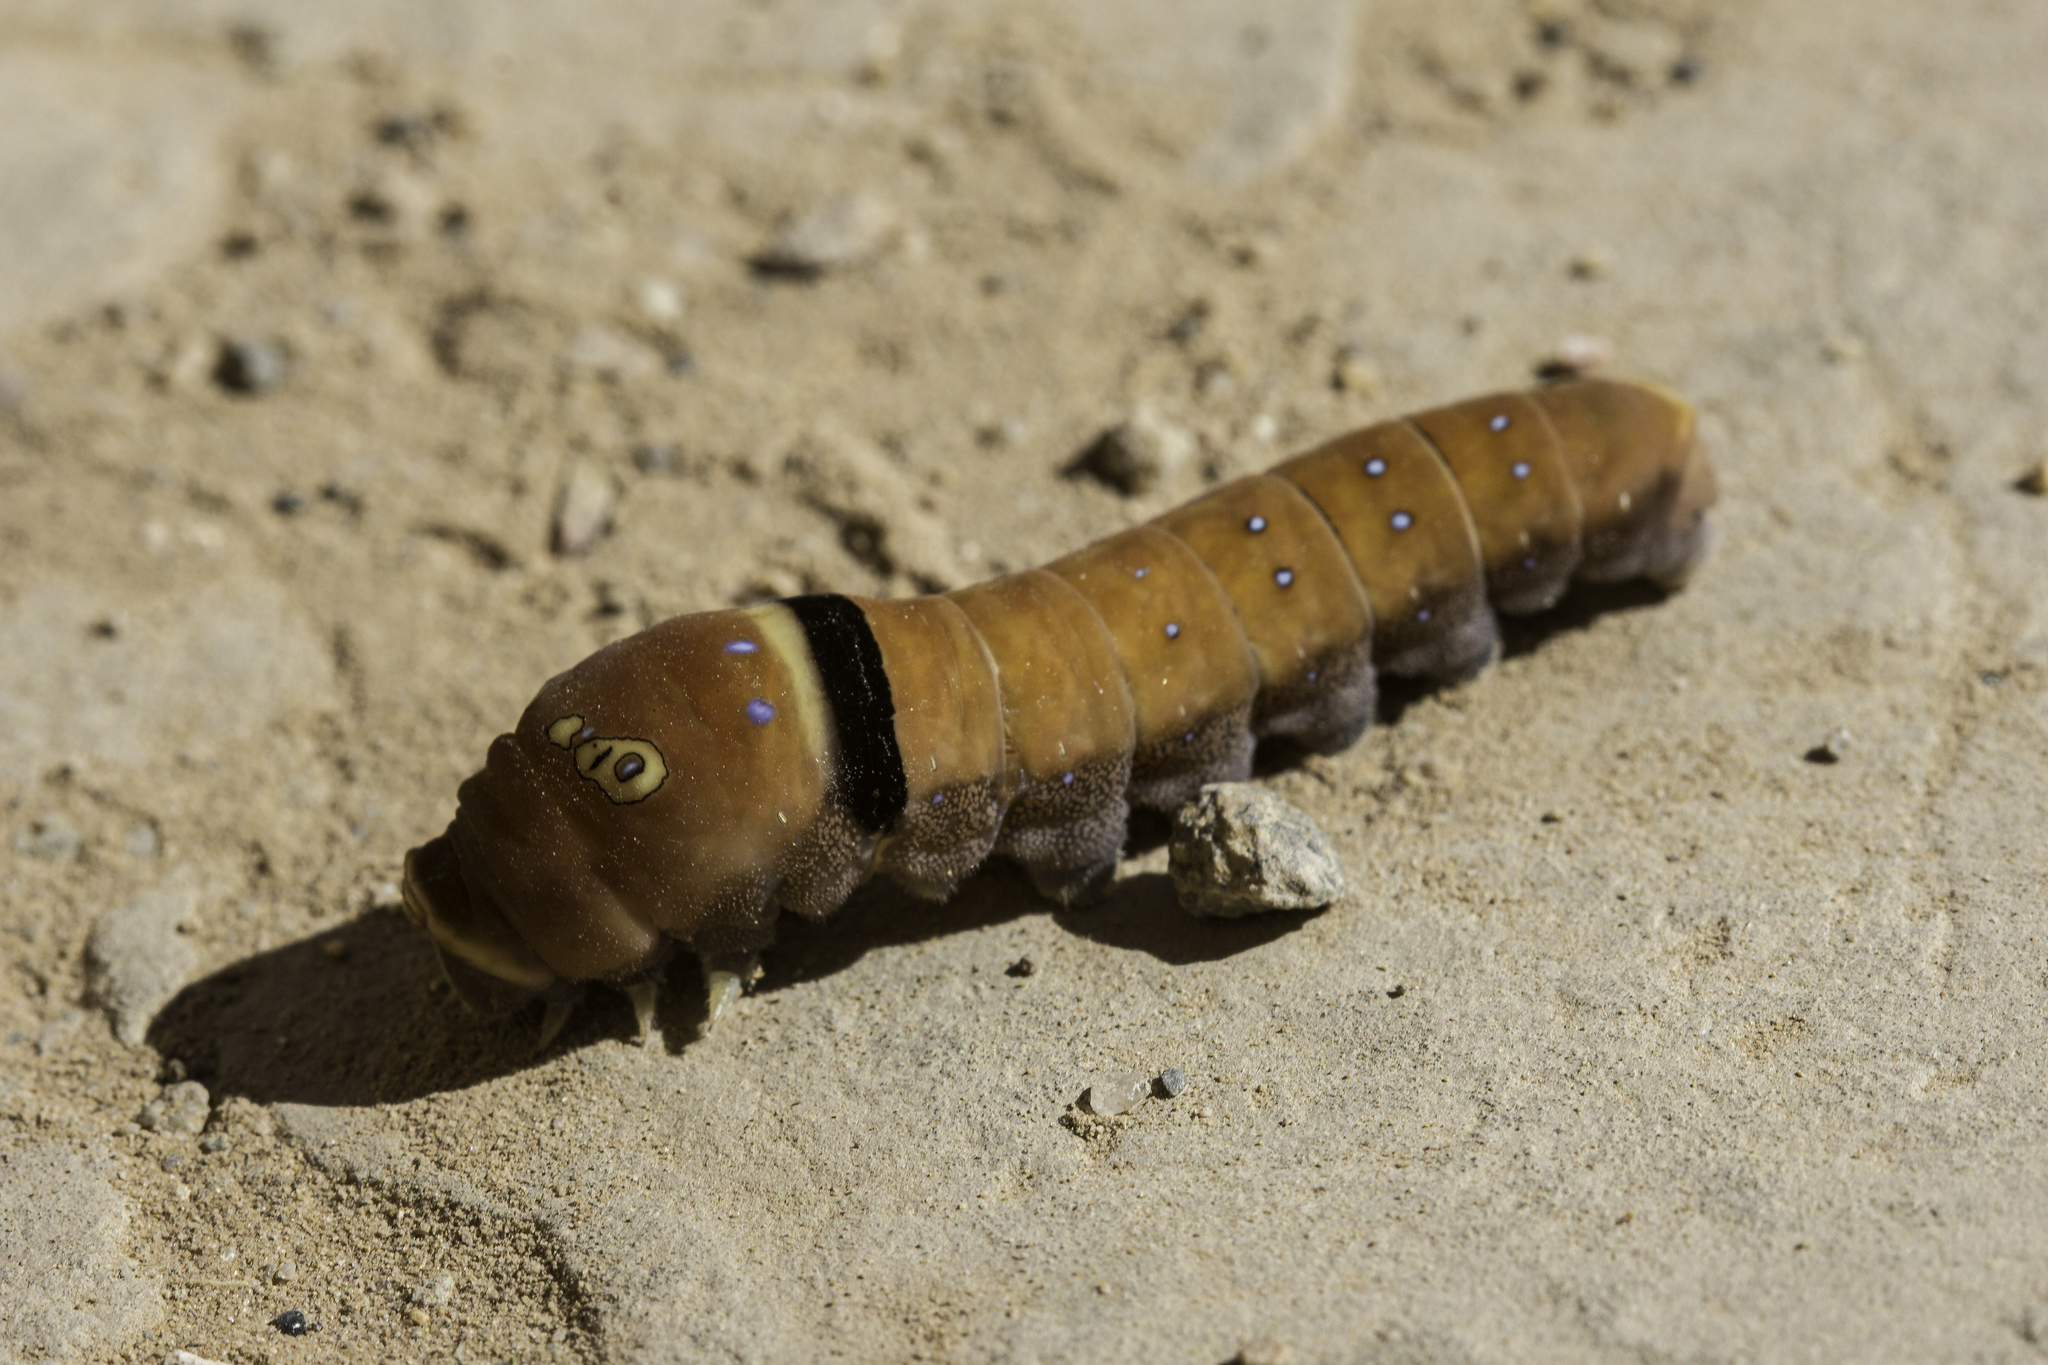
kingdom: Animalia
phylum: Arthropoda
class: Insecta
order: Lepidoptera
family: Papilionidae
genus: Papilio
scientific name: Papilio multicaudata
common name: Two-tailed tiger swallowtail
